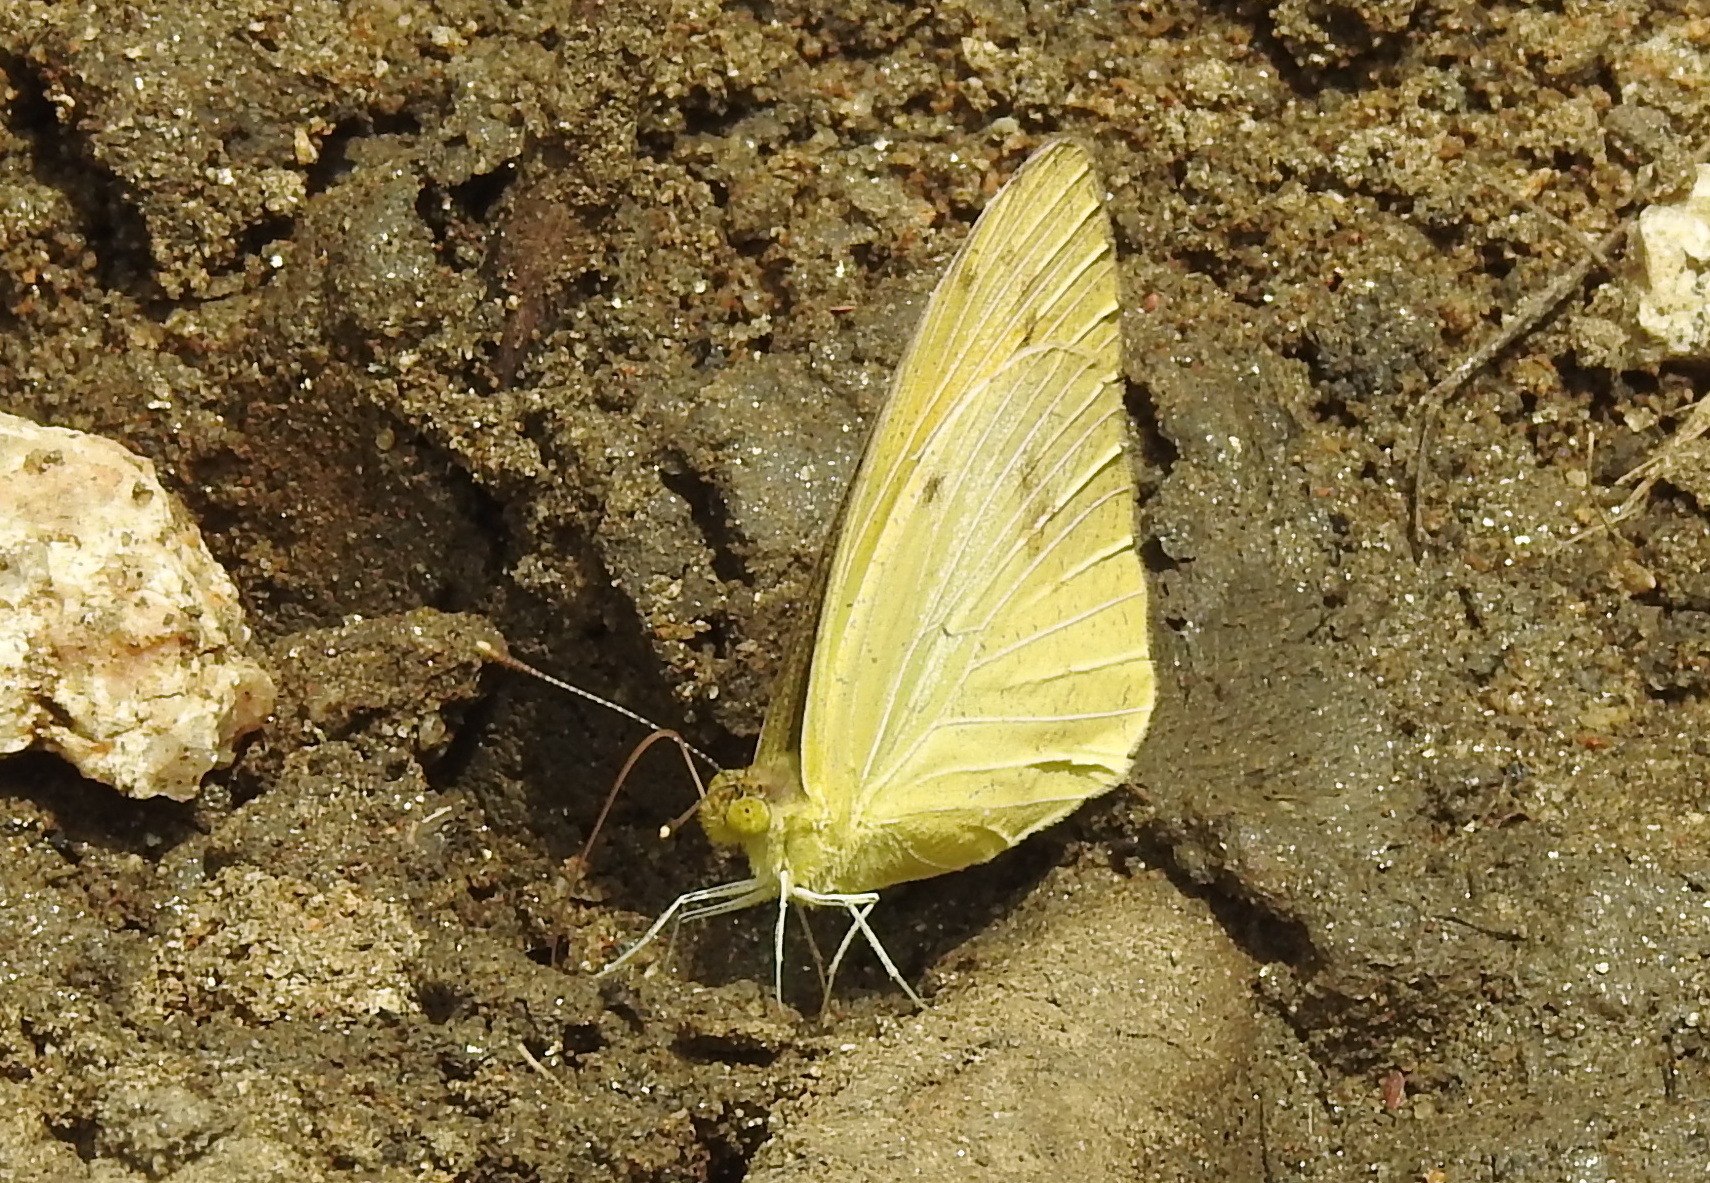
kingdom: Animalia
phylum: Arthropoda
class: Insecta
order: Lepidoptera
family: Pieridae
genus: Ixias
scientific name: Ixias pyrene
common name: Yellow orange tip
